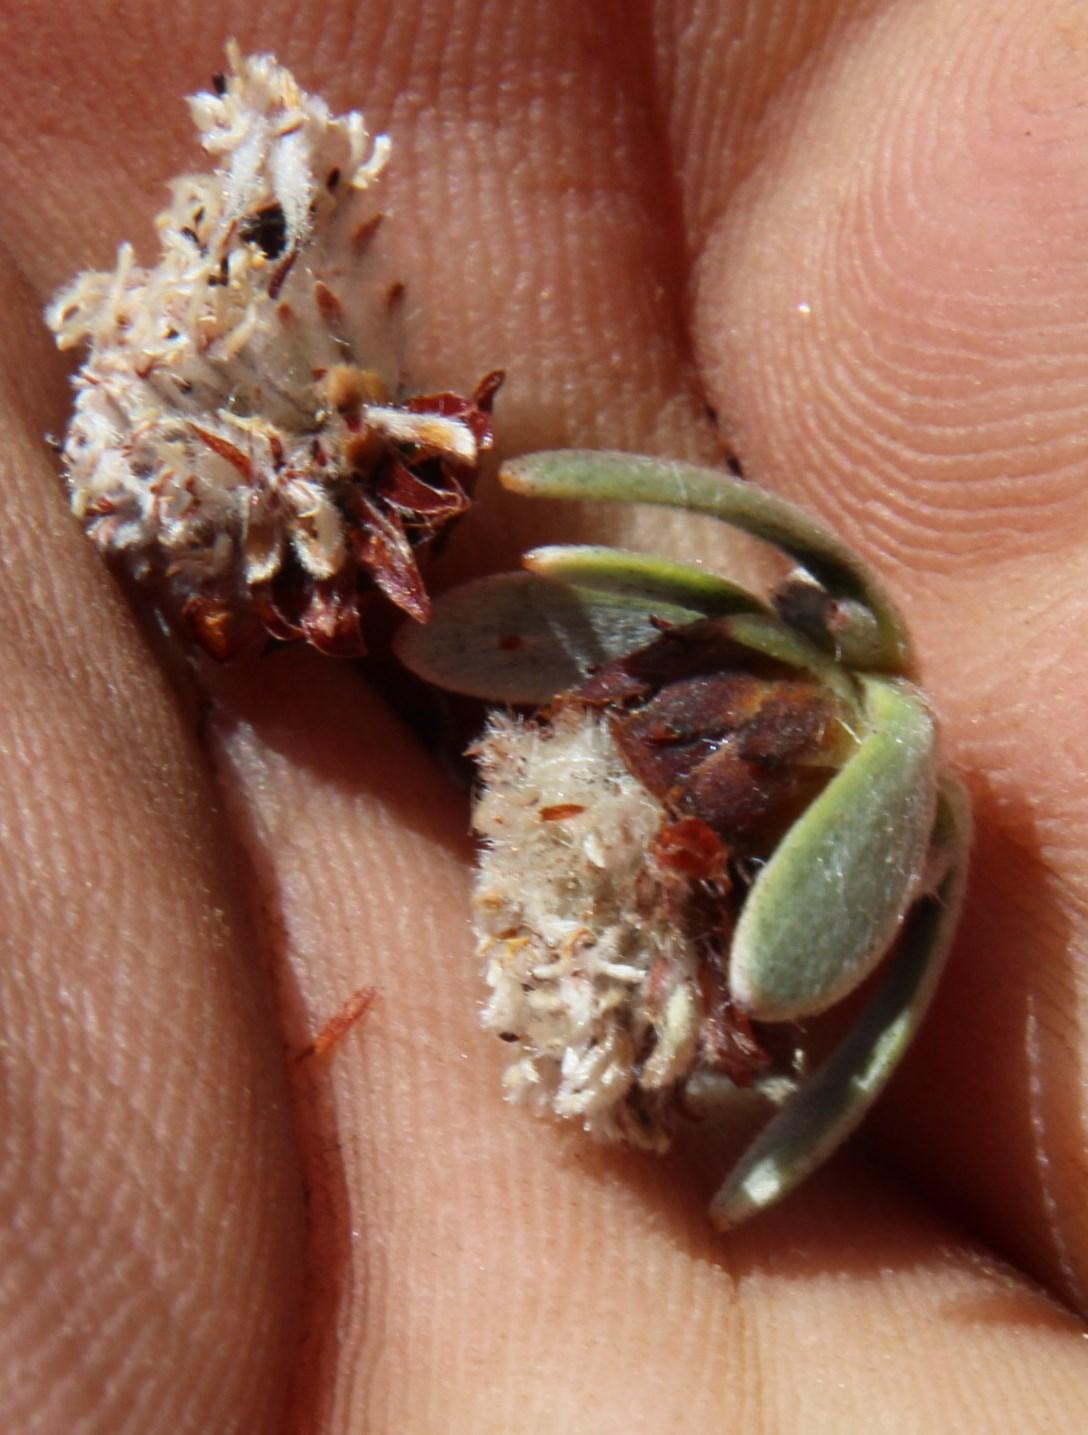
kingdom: Plantae
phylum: Tracheophyta
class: Magnoliopsida
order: Proteales
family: Proteaceae
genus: Leucadendron
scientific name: Leucadendron nitidum
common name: Bokkeveld conebush
